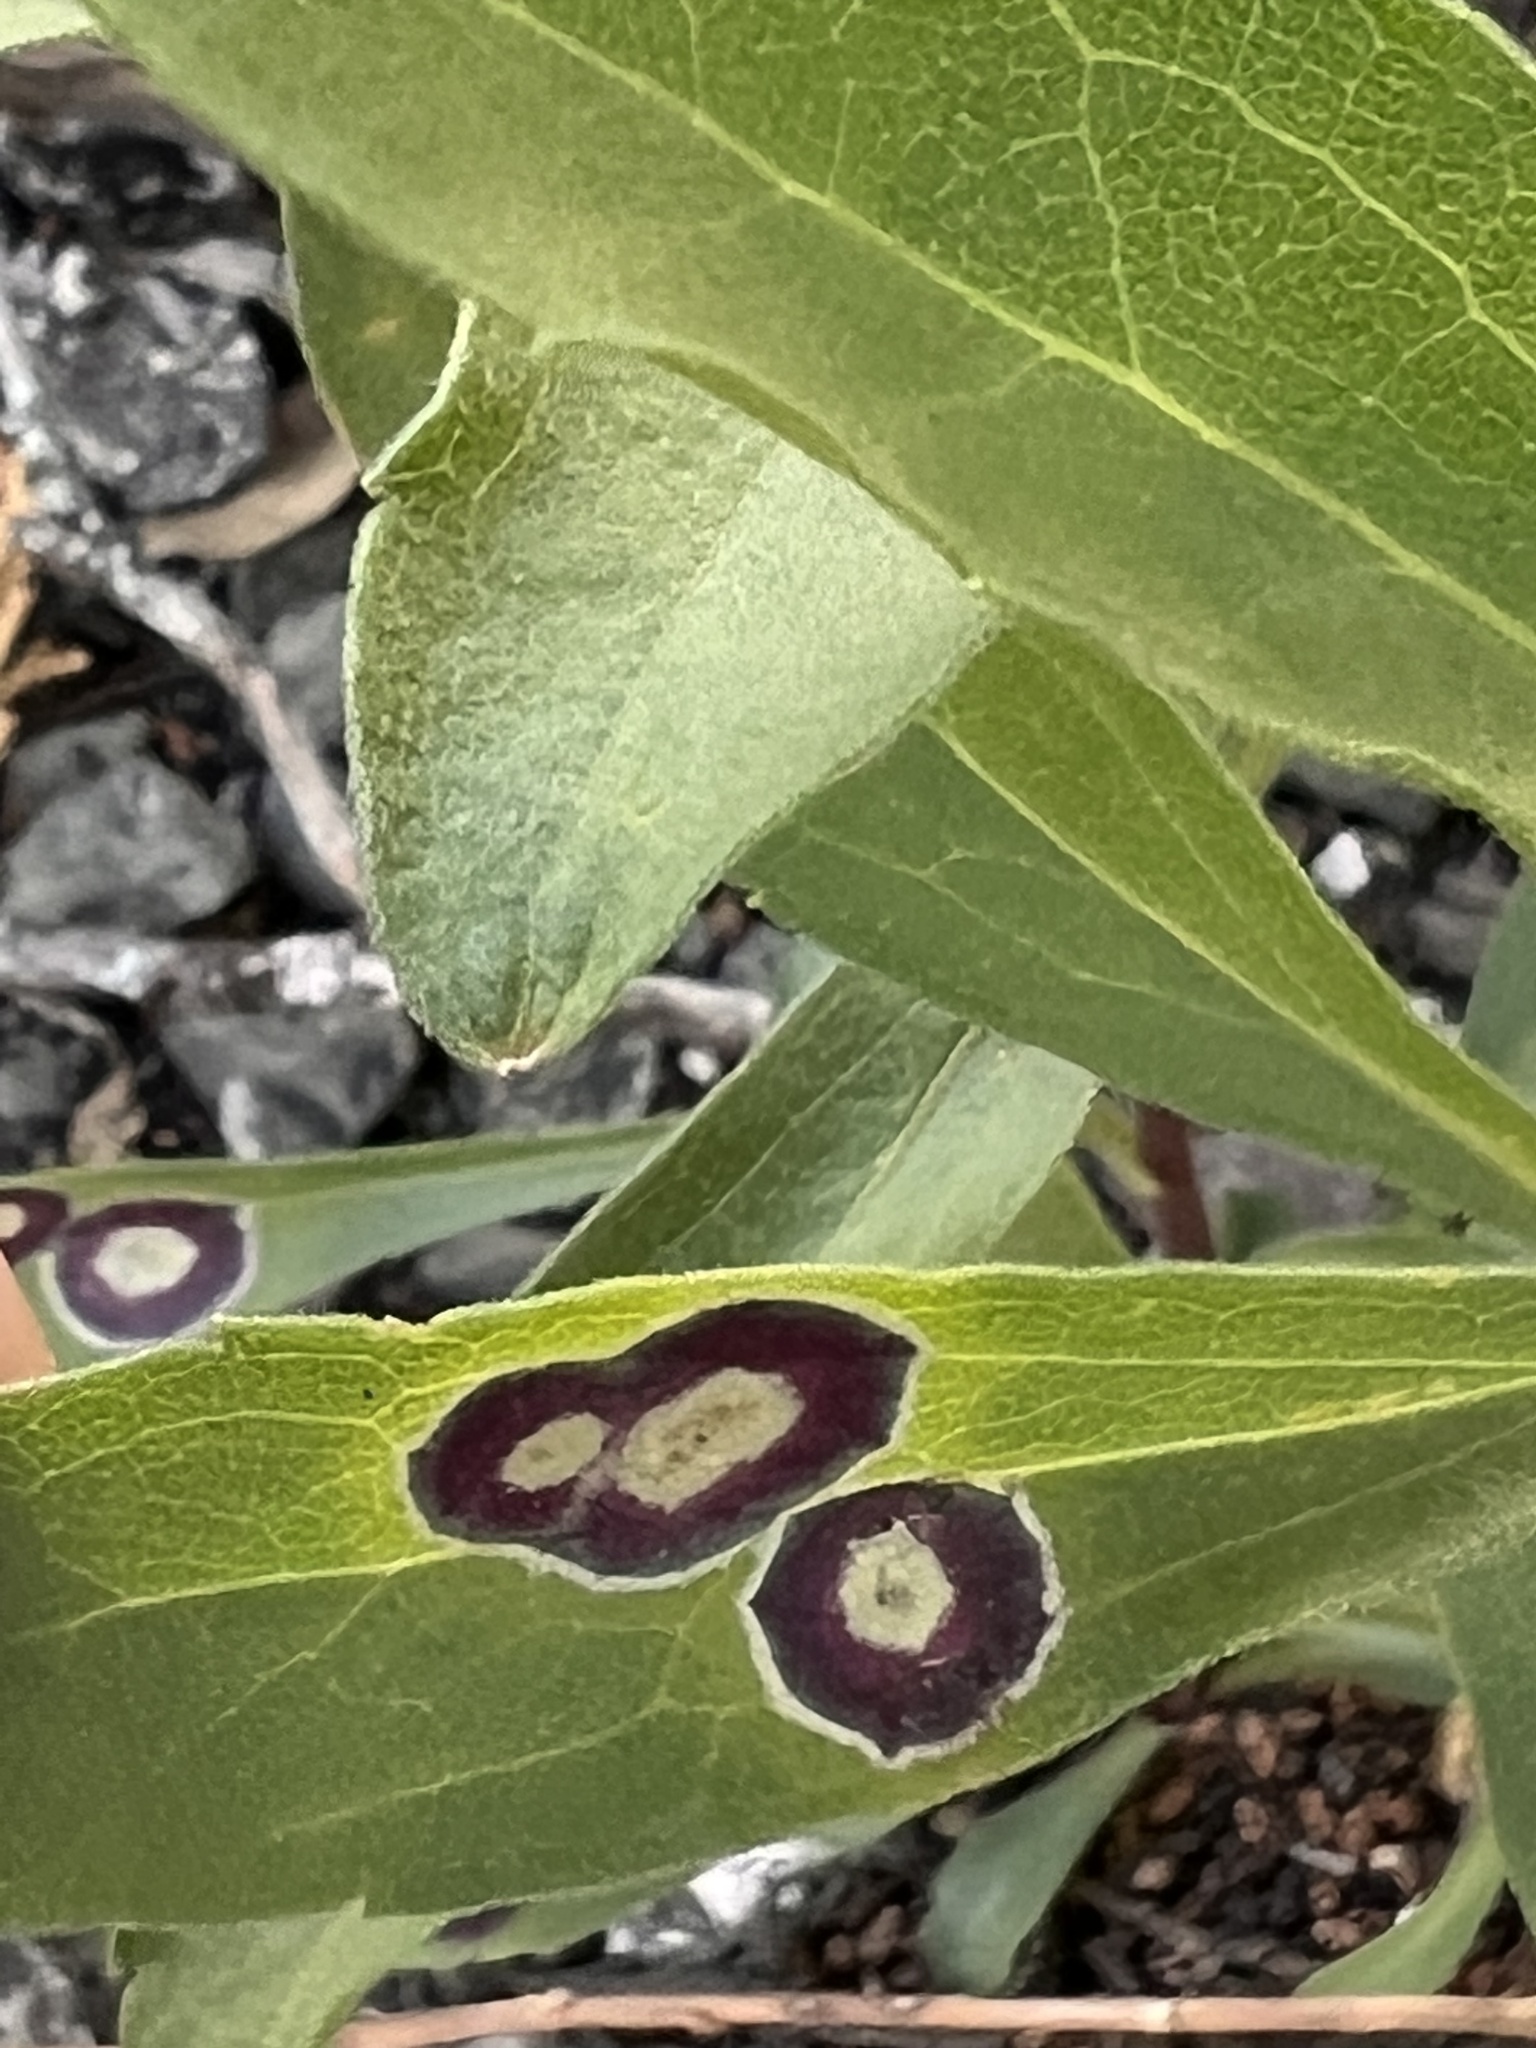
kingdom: Animalia
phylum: Arthropoda
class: Insecta
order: Diptera
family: Cecidomyiidae
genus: Asteromyia
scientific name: Asteromyia carbonifera
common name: Carbonifera goldenrod gall midge
